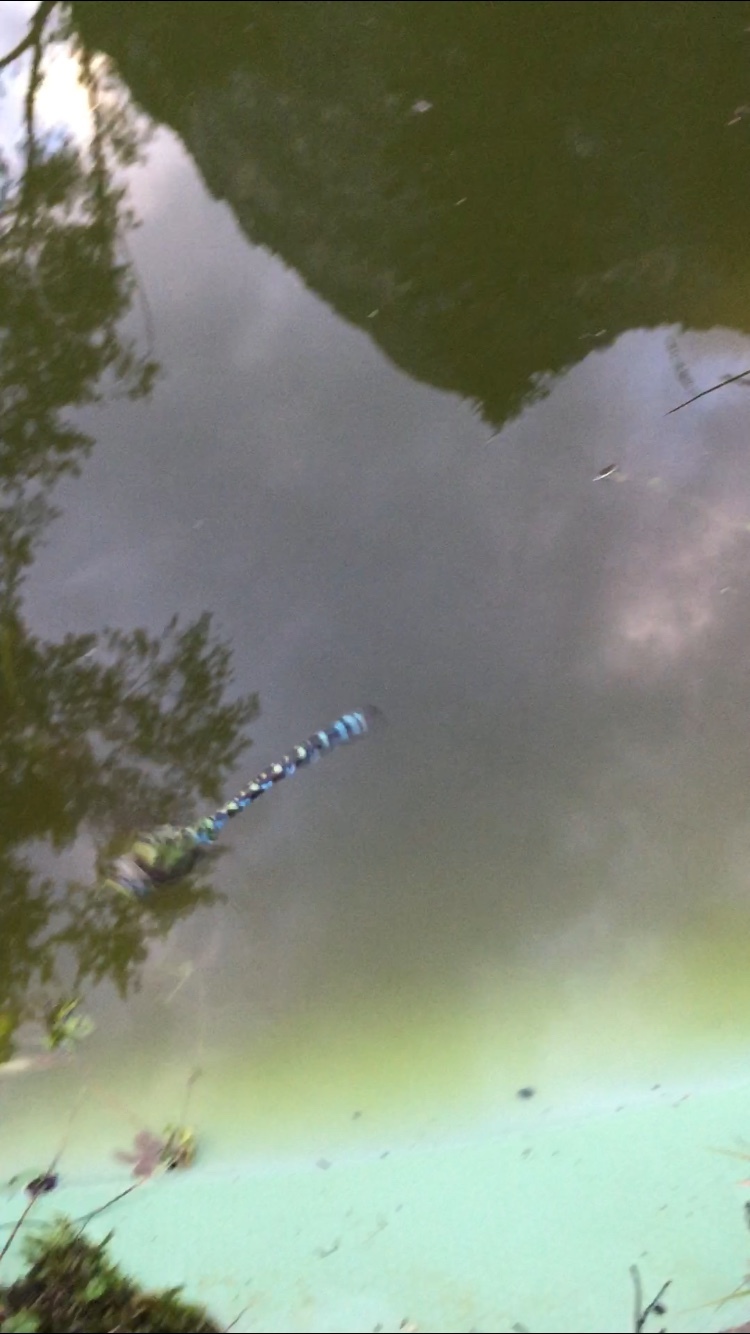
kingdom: Animalia
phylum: Arthropoda
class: Insecta
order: Odonata
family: Aeshnidae
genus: Aeshna
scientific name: Aeshna cyanea
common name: Southern hawker
